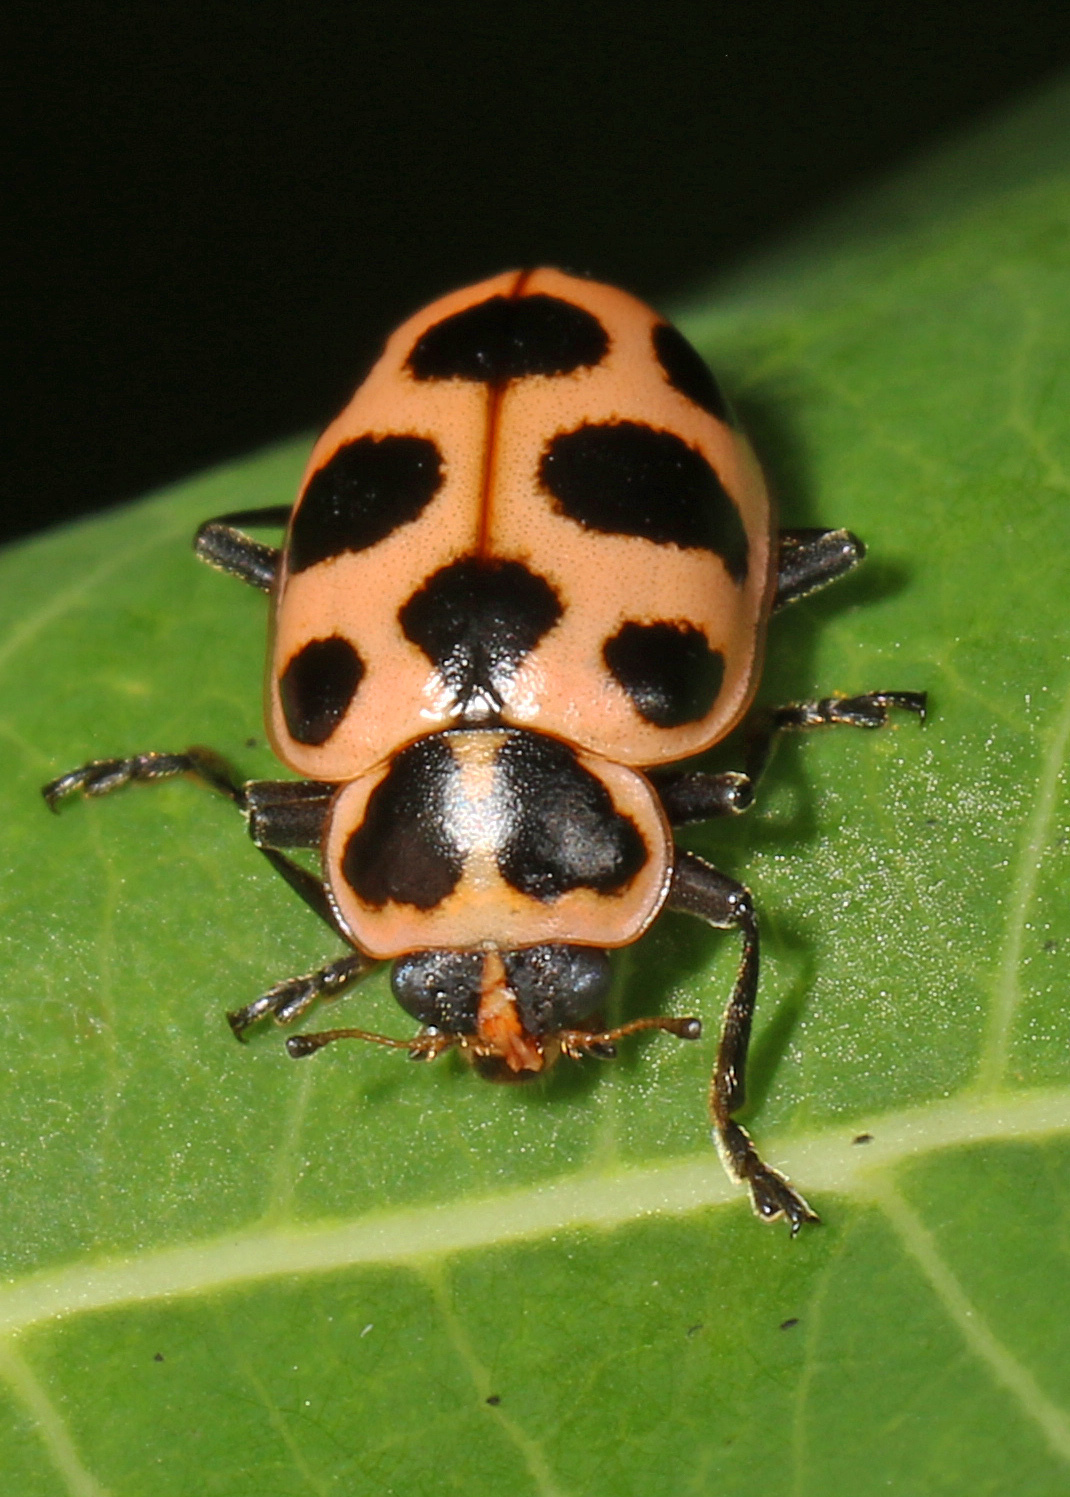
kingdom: Animalia
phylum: Arthropoda
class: Insecta
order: Coleoptera
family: Coccinellidae
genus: Coleomegilla
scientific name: Coleomegilla maculata
